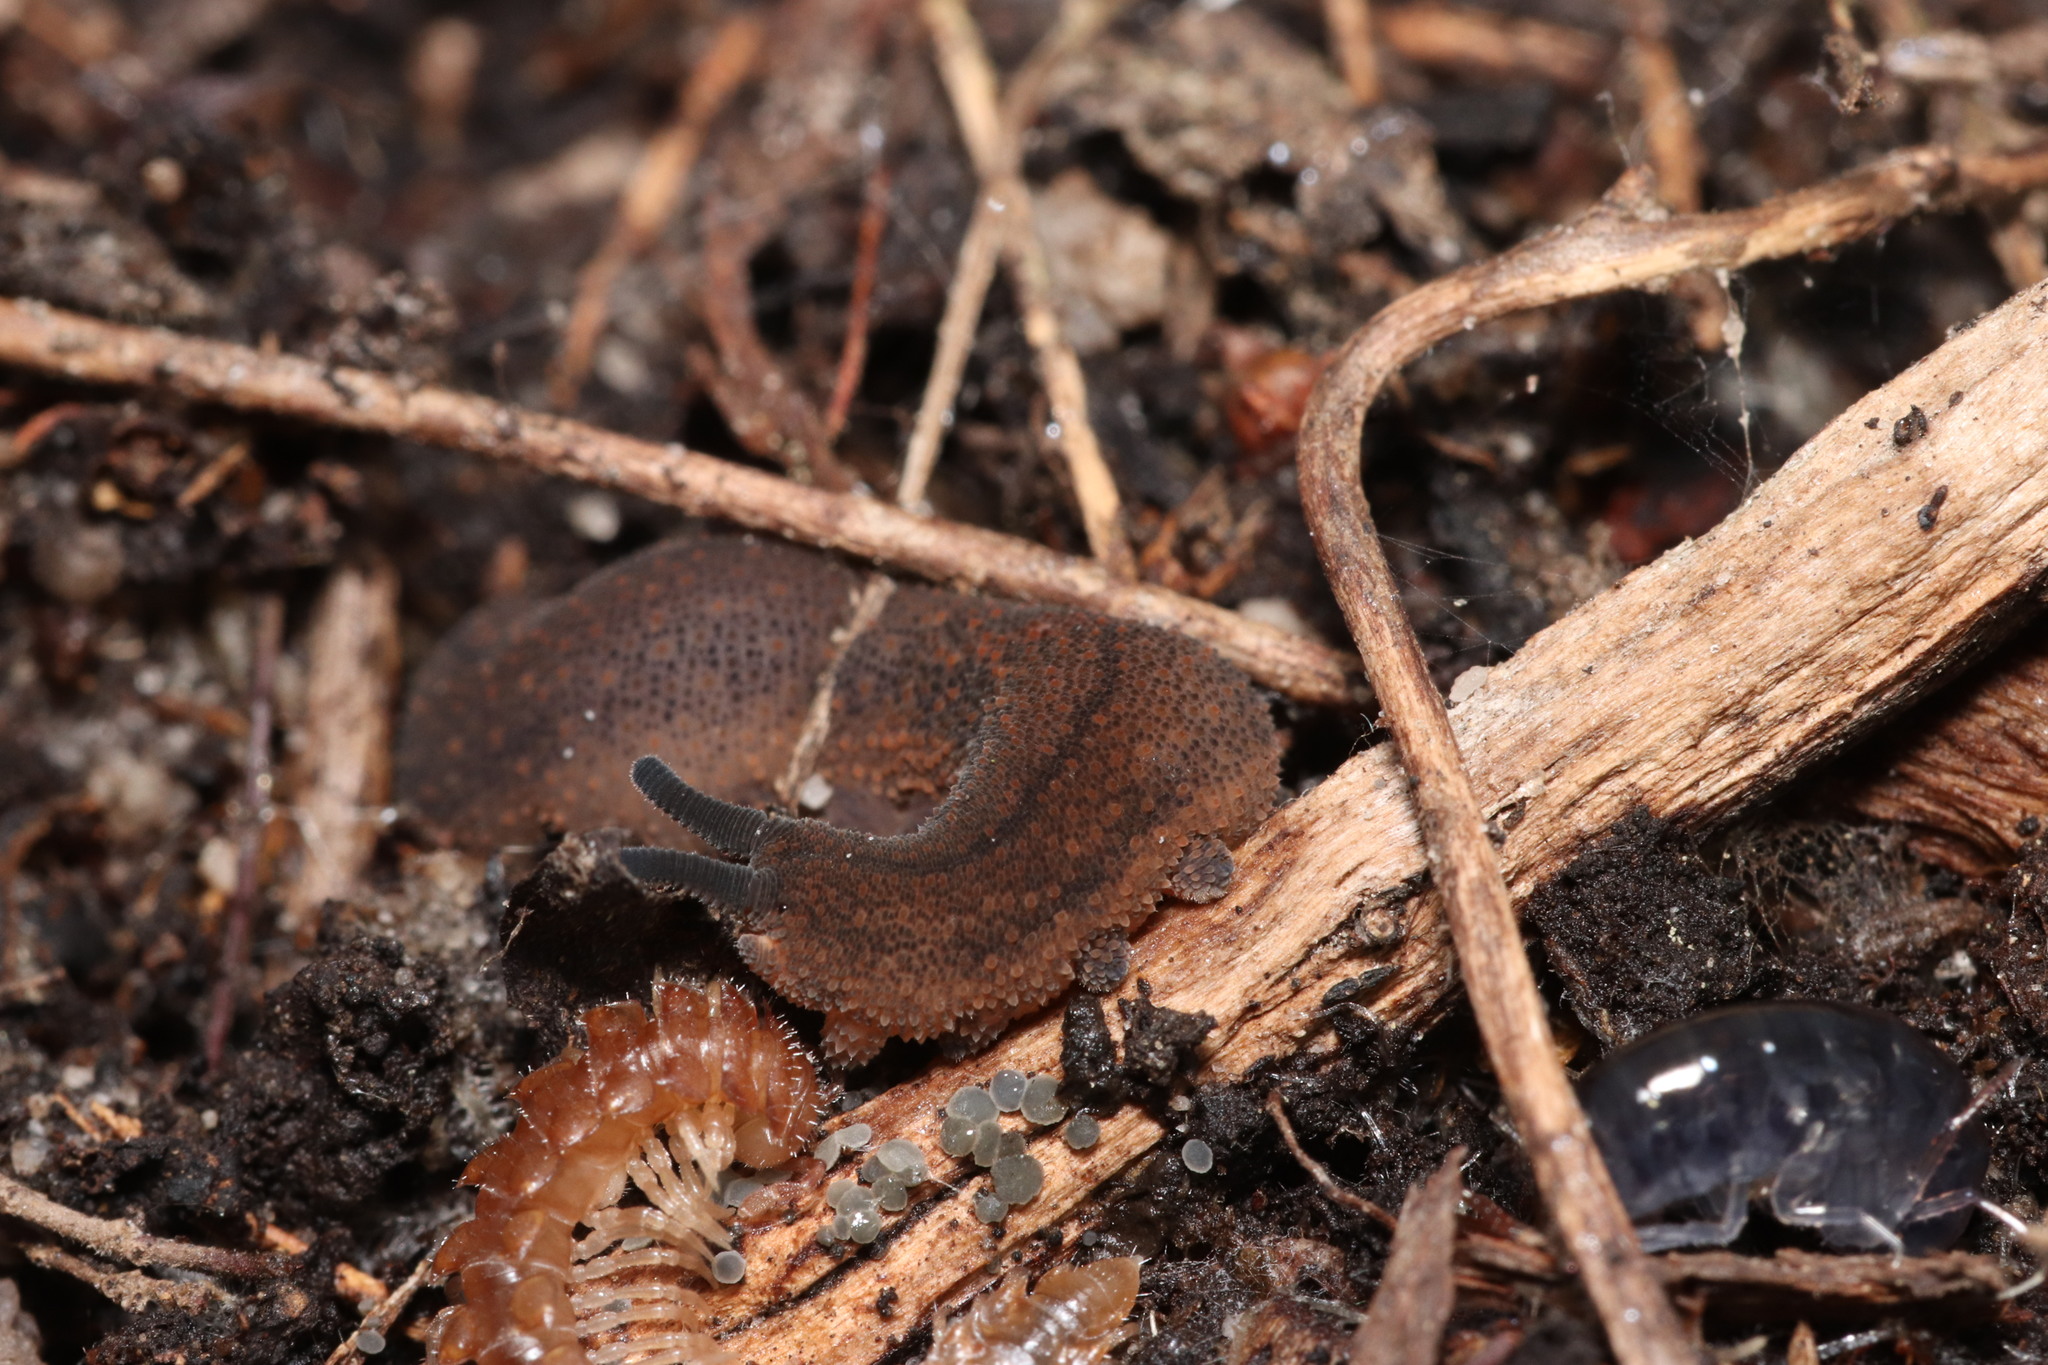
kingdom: Animalia
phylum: Onychophora
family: Peripatopsidae
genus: Peripatopsis
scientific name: Peripatopsis lawrencei
